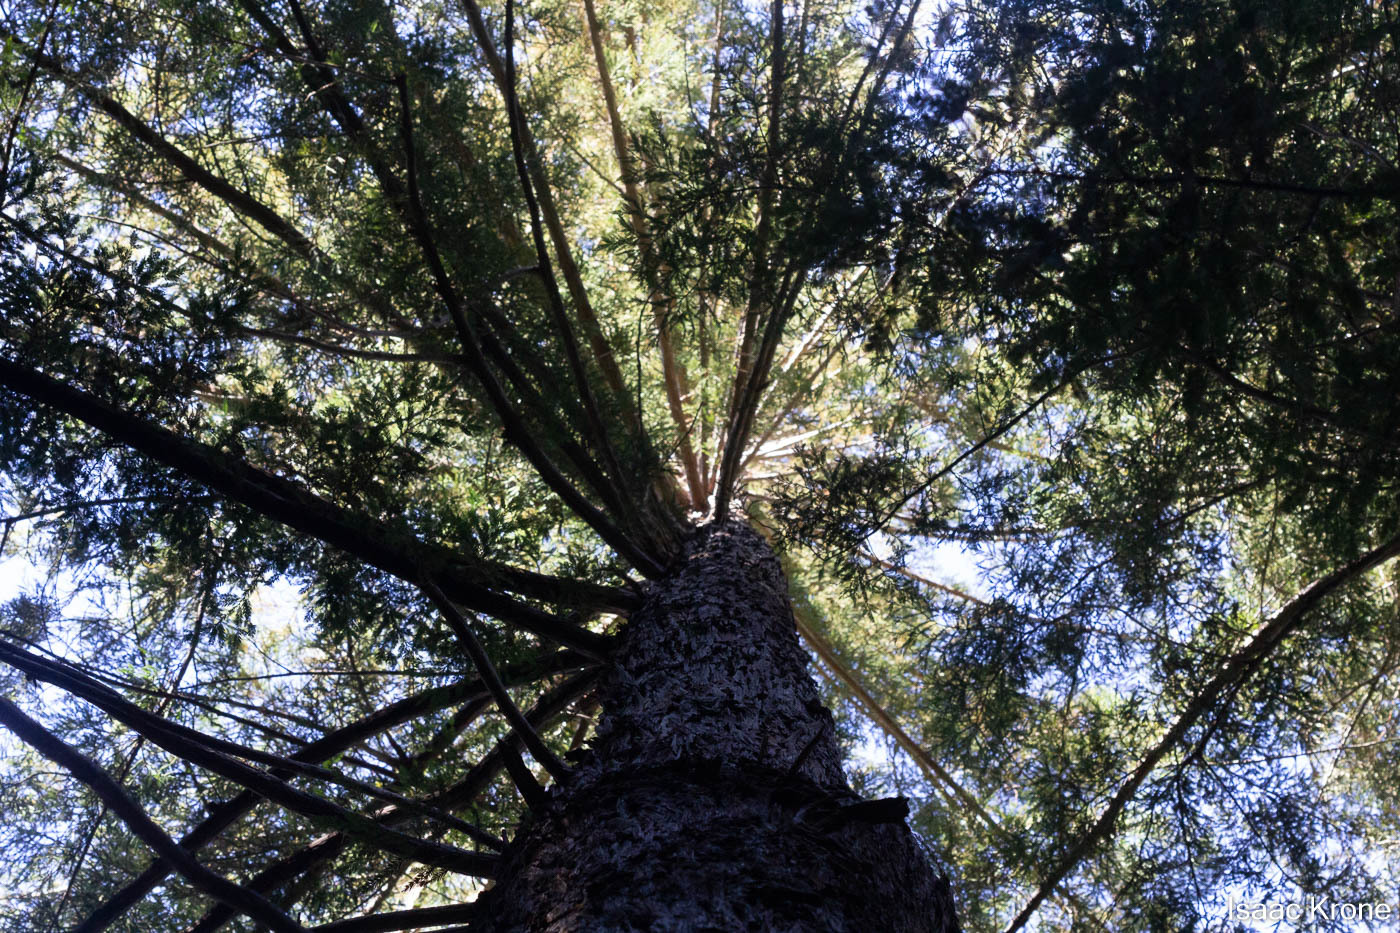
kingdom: Plantae
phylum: Tracheophyta
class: Pinopsida
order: Pinales
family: Cupressaceae
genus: Sequoia
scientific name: Sequoia sempervirens
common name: Coast redwood
